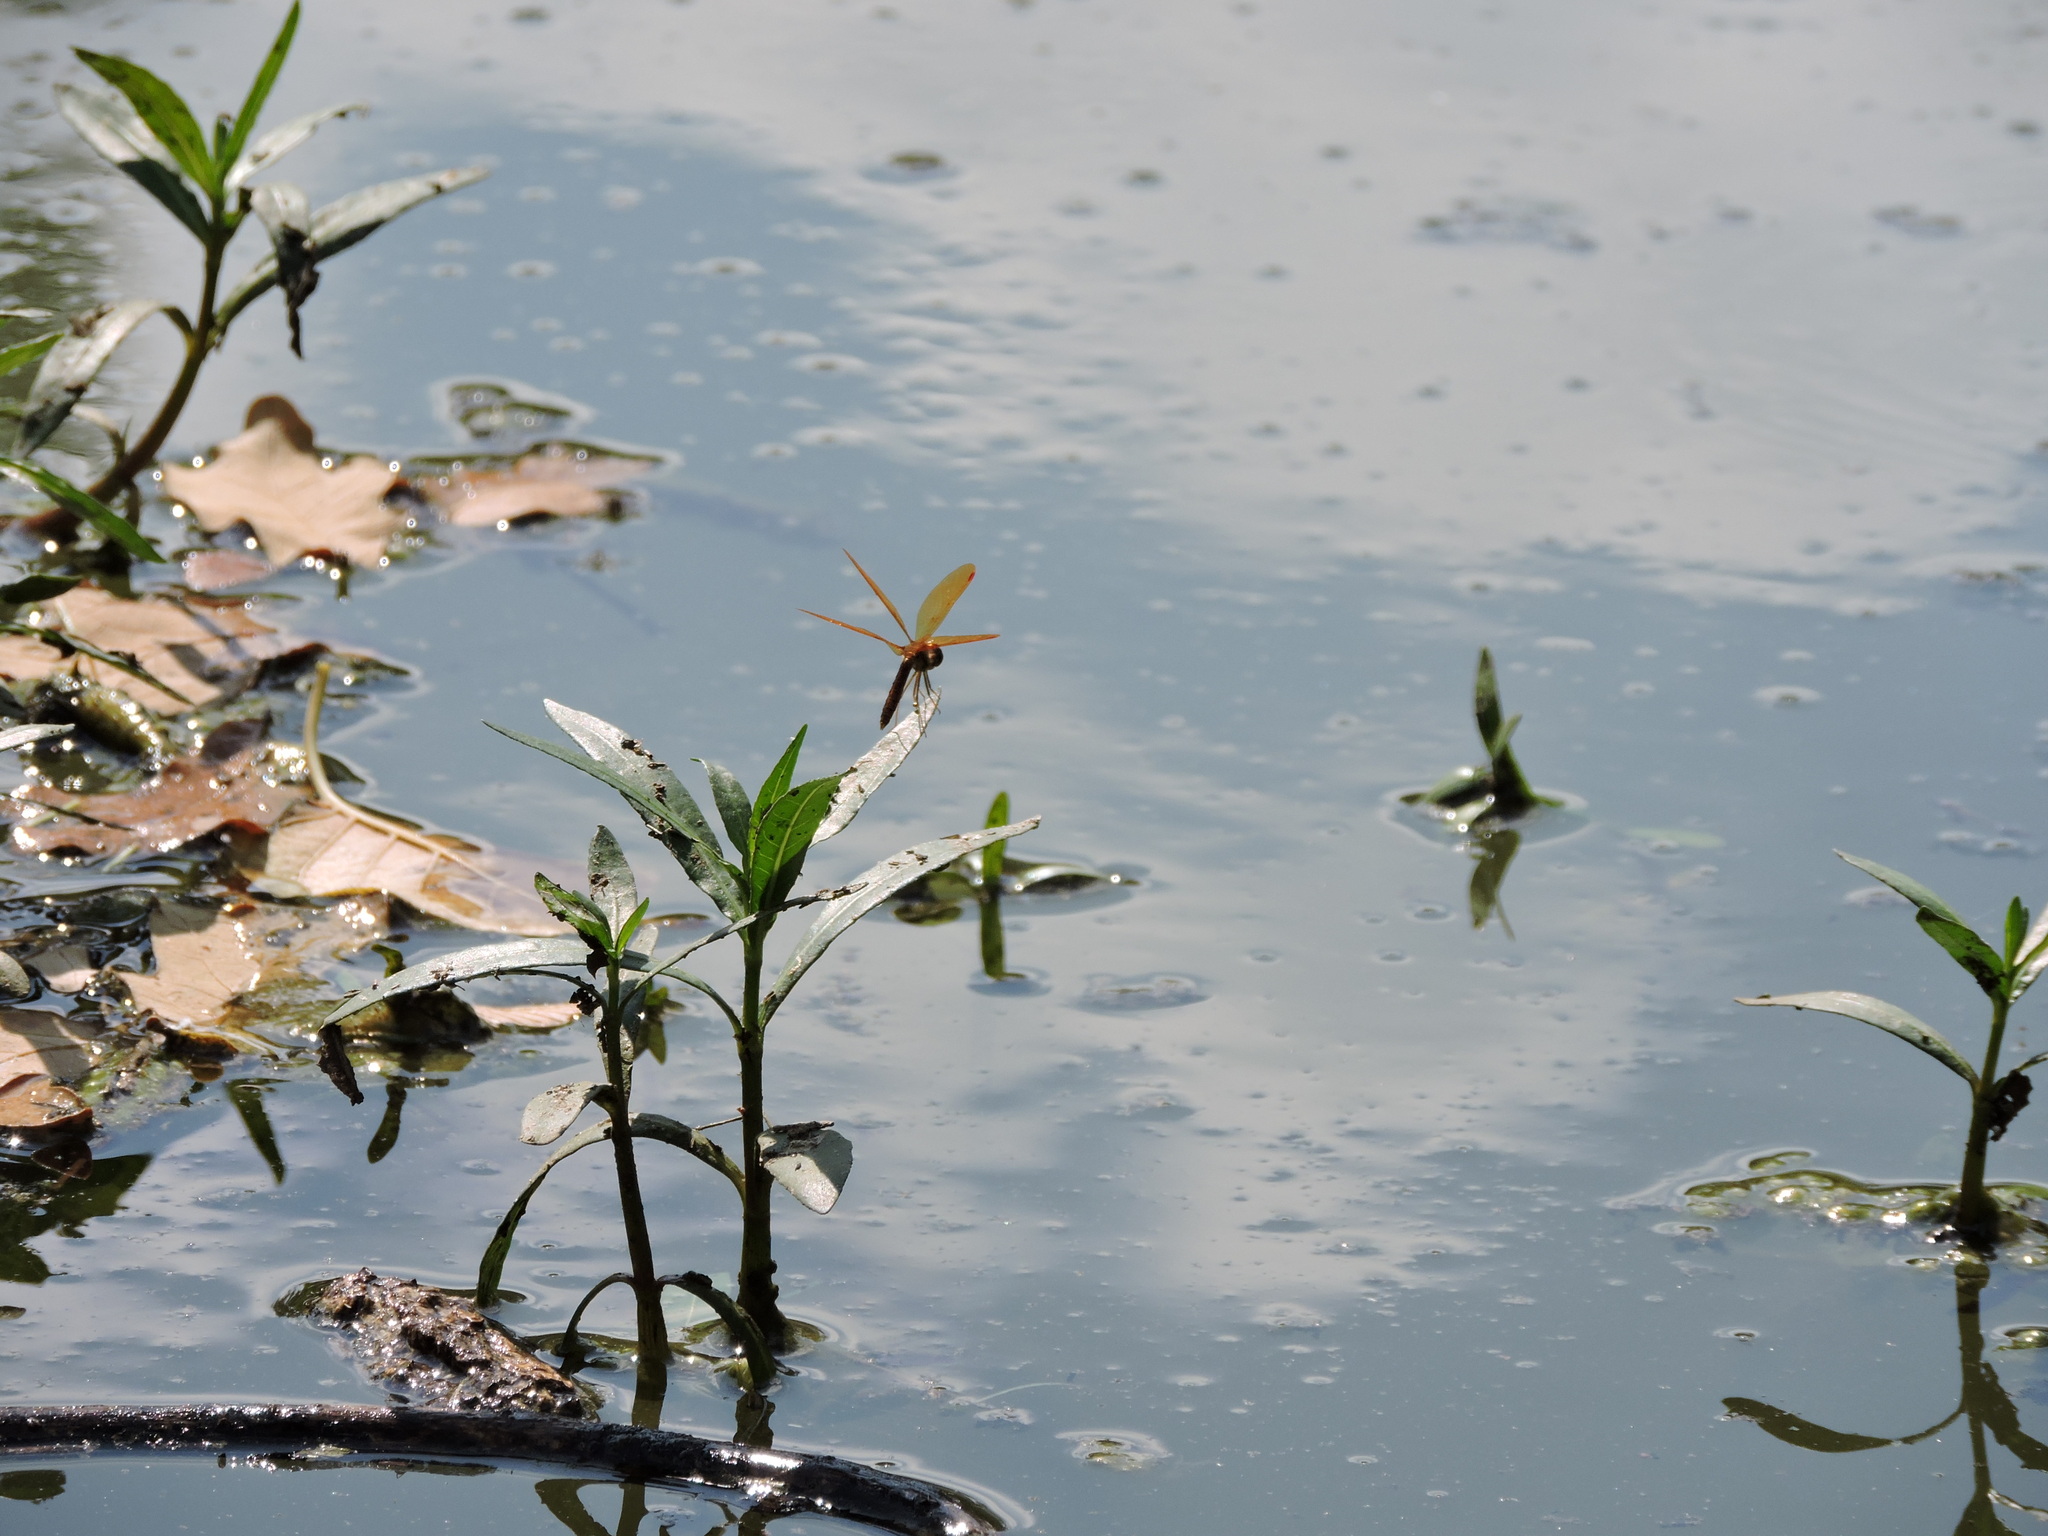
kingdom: Animalia
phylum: Arthropoda
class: Insecta
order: Odonata
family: Libellulidae
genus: Perithemis
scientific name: Perithemis tenera
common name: Eastern amberwing
